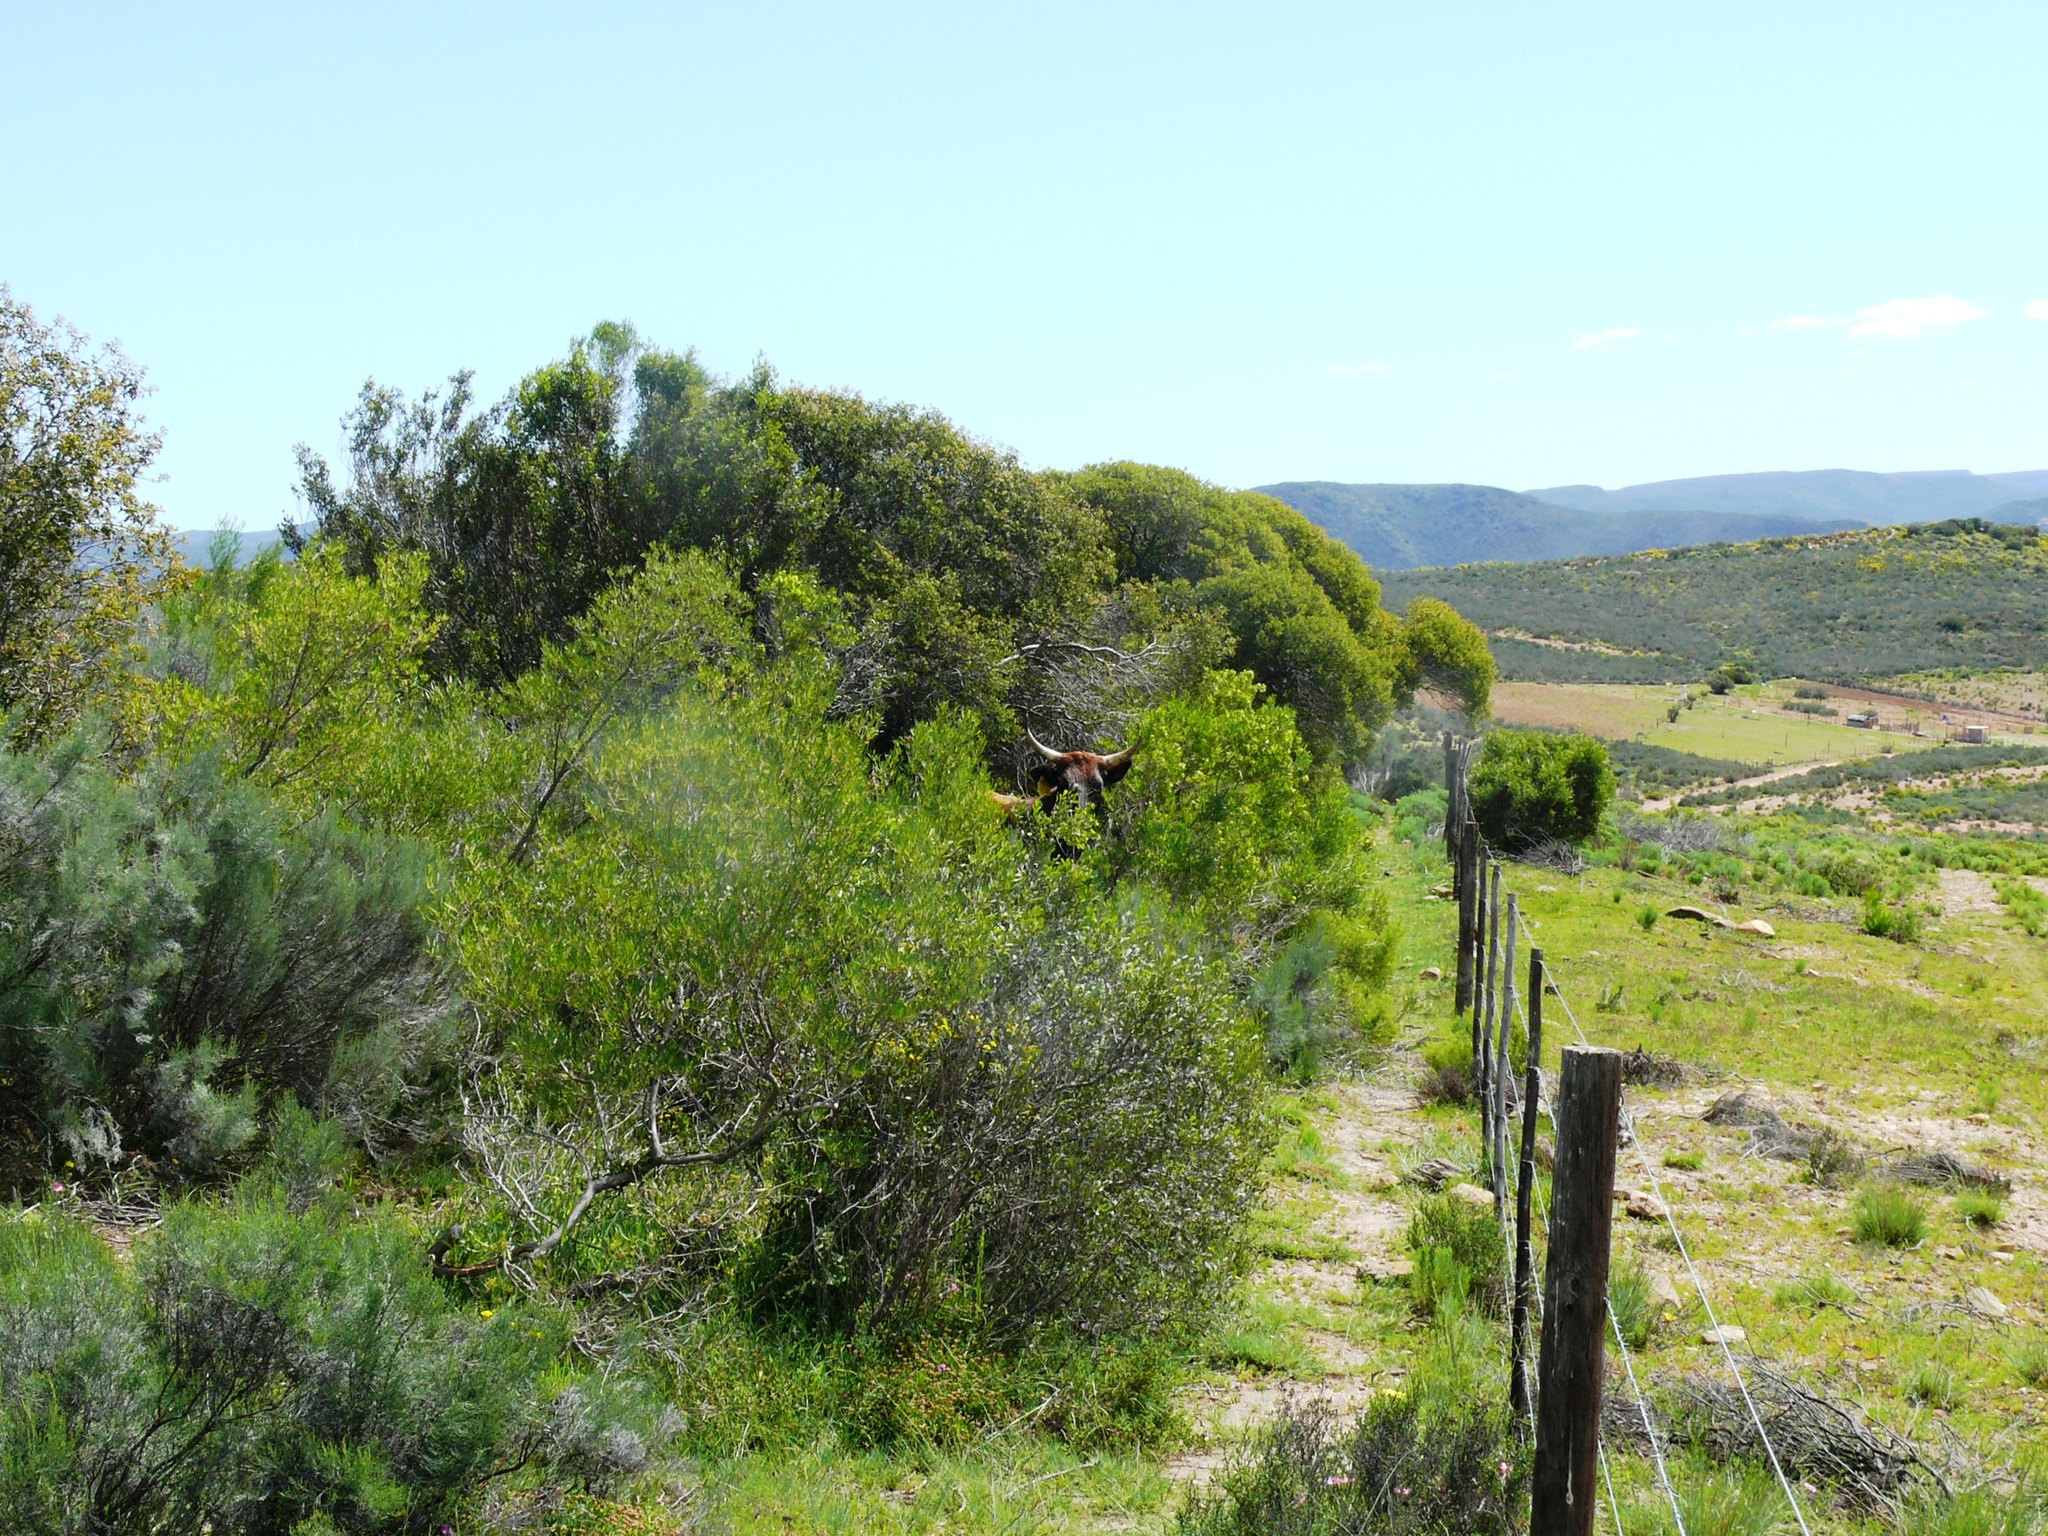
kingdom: Plantae
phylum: Tracheophyta
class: Magnoliopsida
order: Ericales
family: Ebenaceae
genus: Euclea
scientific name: Euclea undulata
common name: Small-leaved guarri
